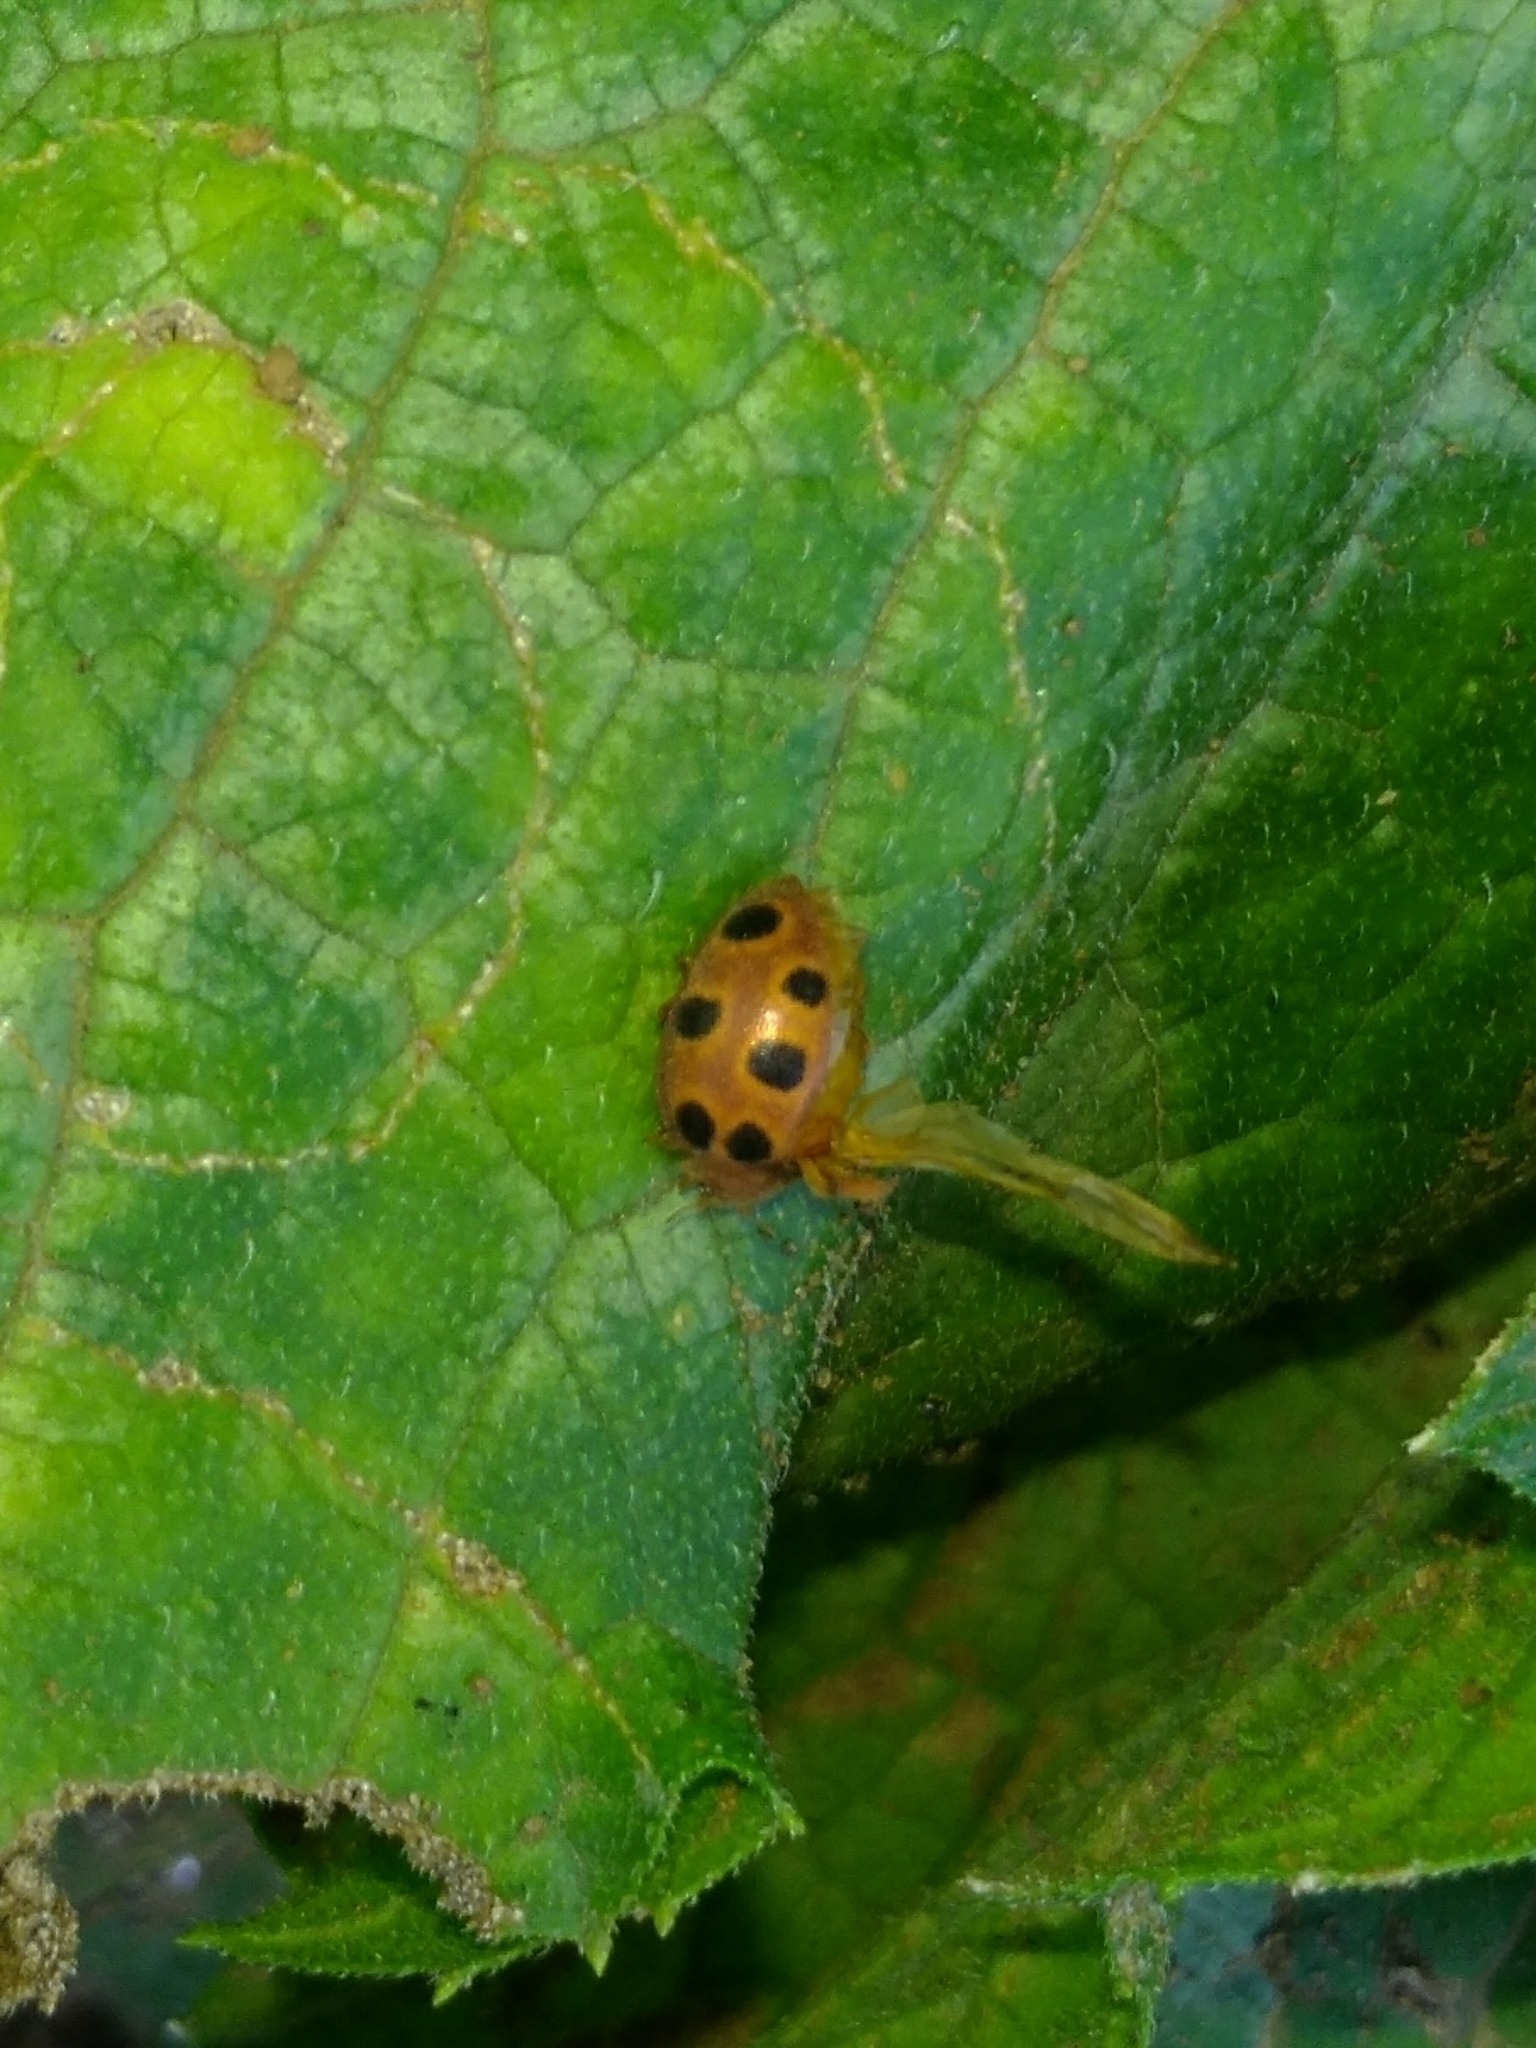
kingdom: Animalia
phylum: Arthropoda
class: Insecta
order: Coleoptera
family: Coccinellidae
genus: Chnootriba
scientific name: Chnootriba elaterii
